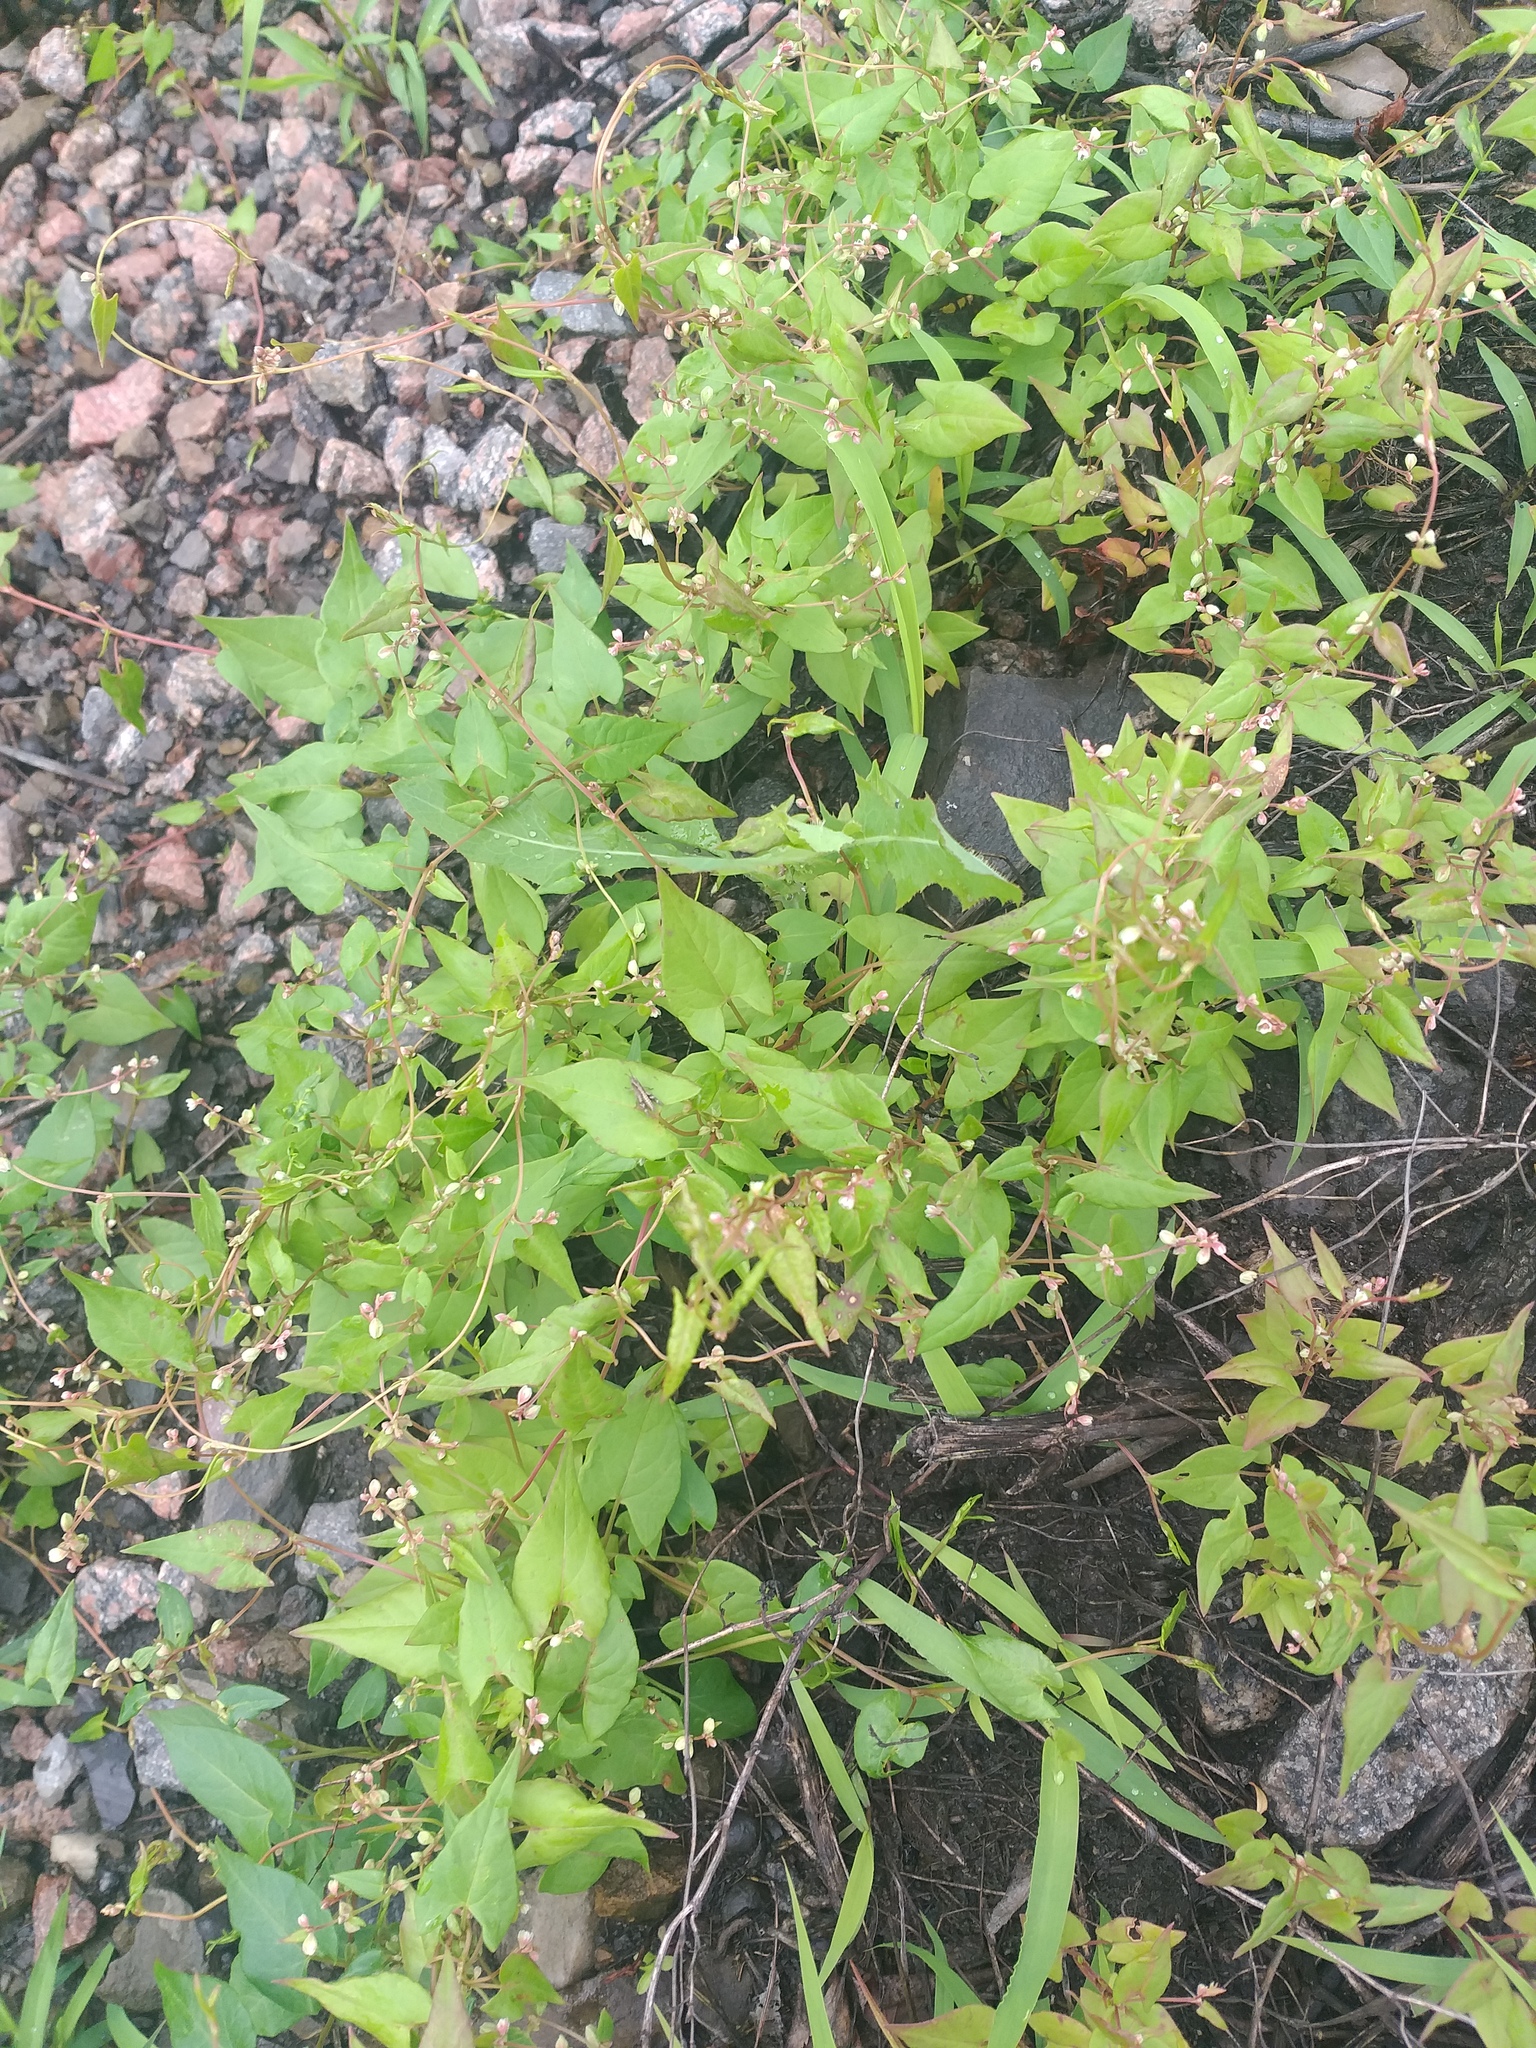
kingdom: Plantae
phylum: Tracheophyta
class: Magnoliopsida
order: Caryophyllales
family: Polygonaceae
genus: Fallopia
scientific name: Fallopia convolvulus
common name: Black bindweed
